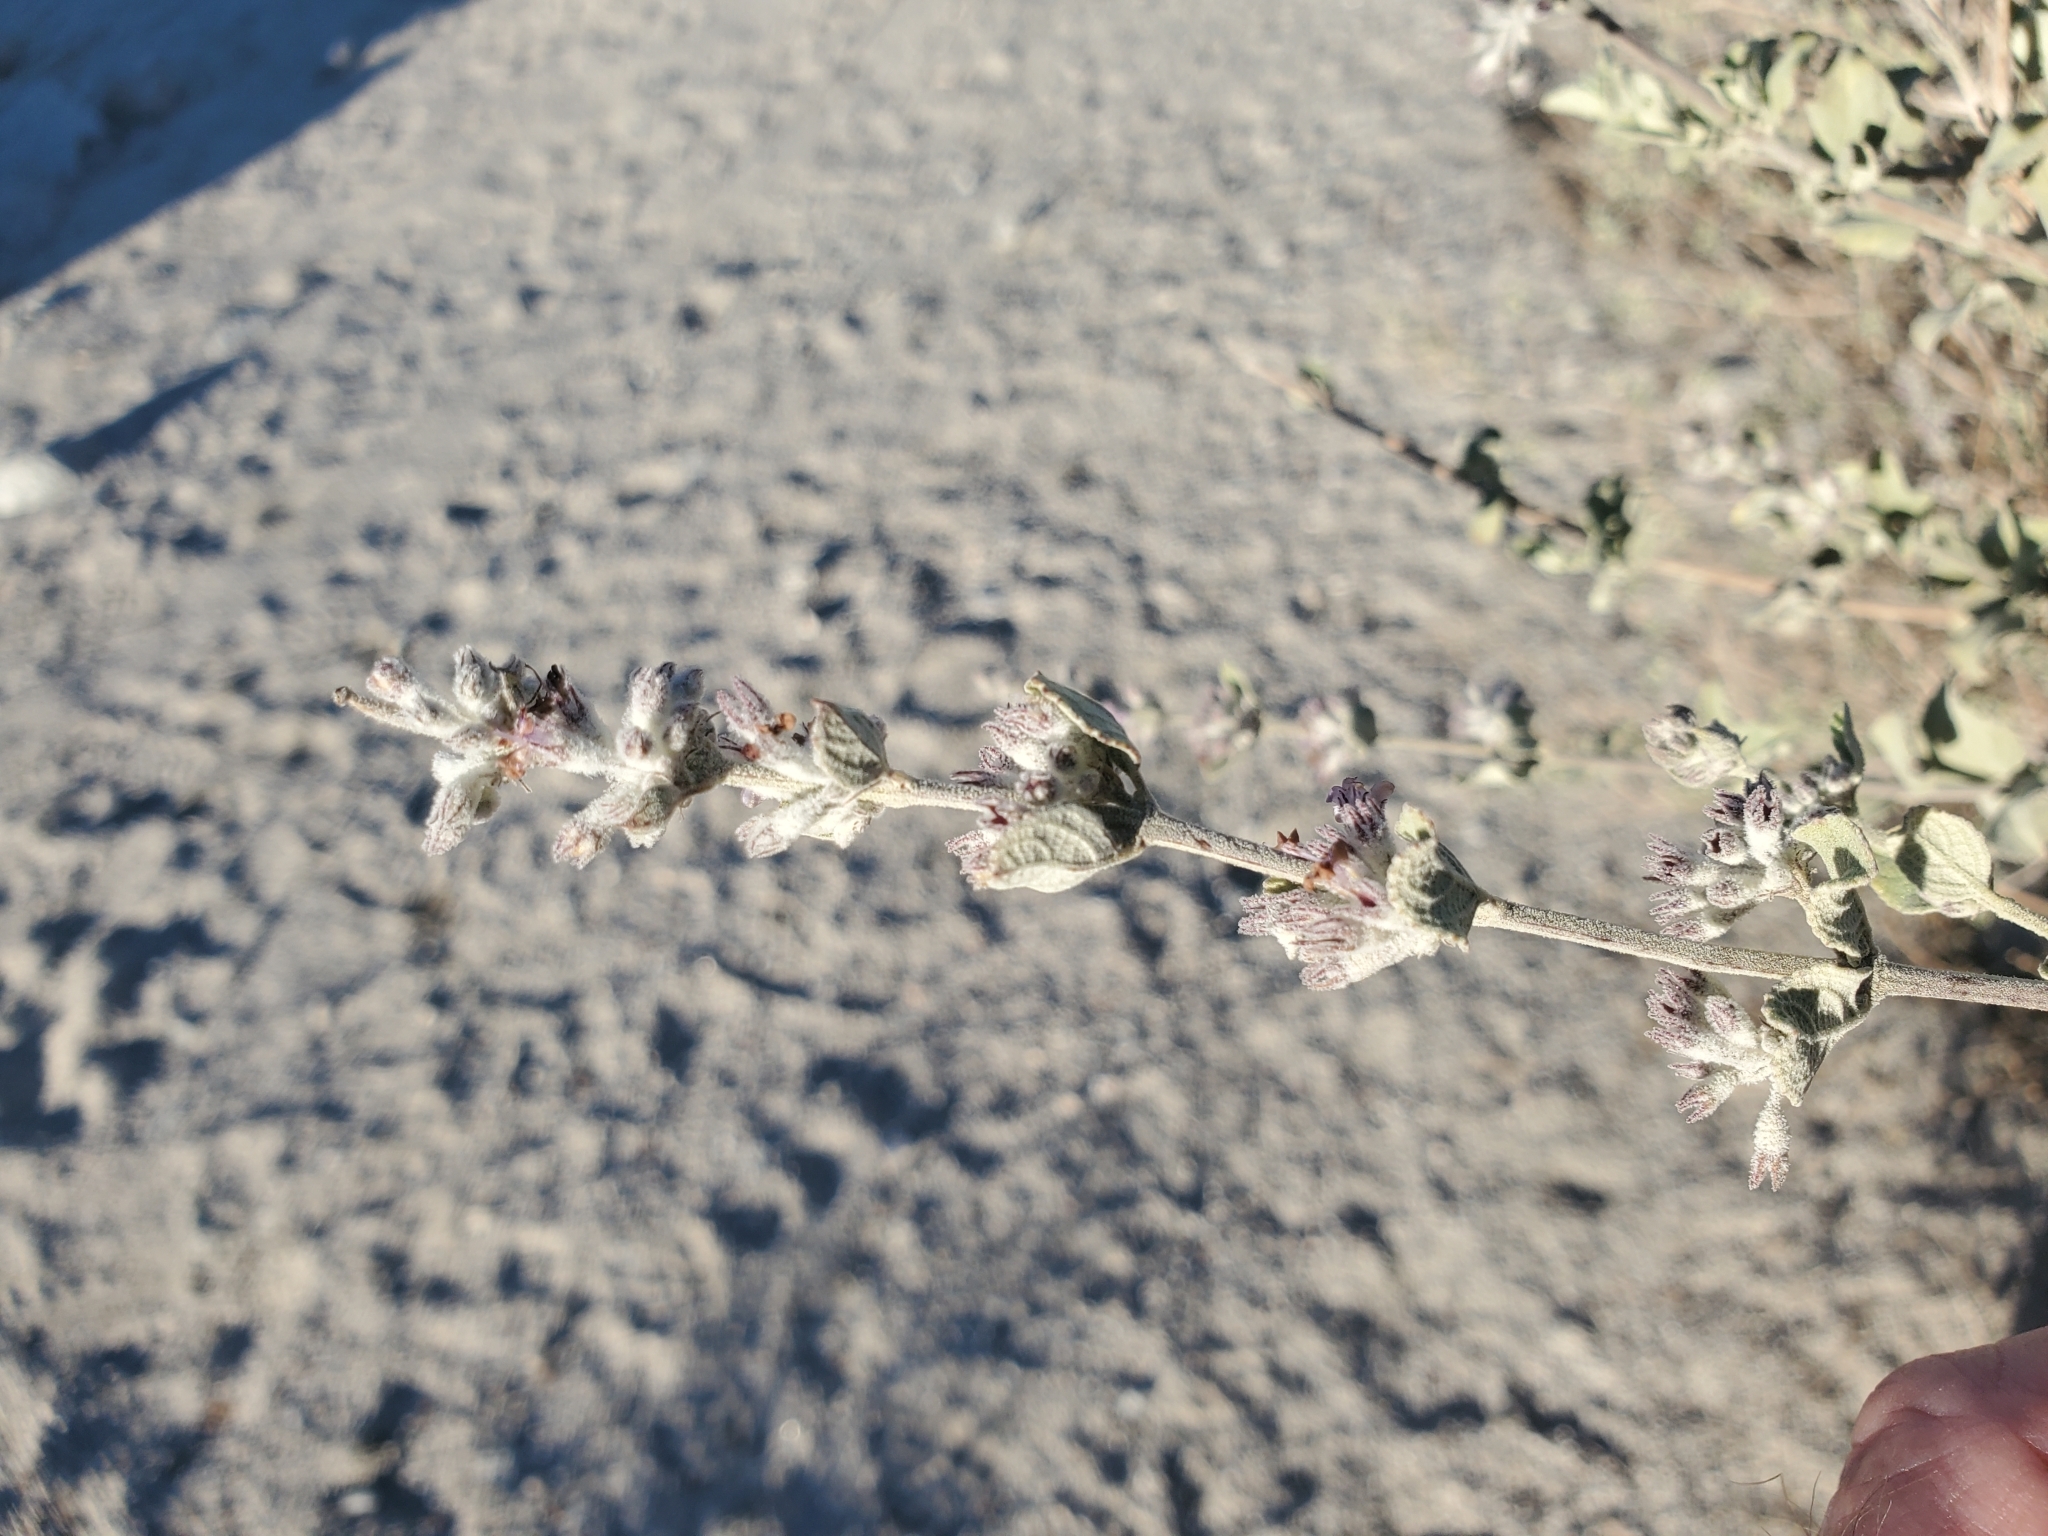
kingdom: Plantae
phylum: Tracheophyta
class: Magnoliopsida
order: Lamiales
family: Lamiaceae
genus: Condea
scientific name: Condea emoryi
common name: Chia
